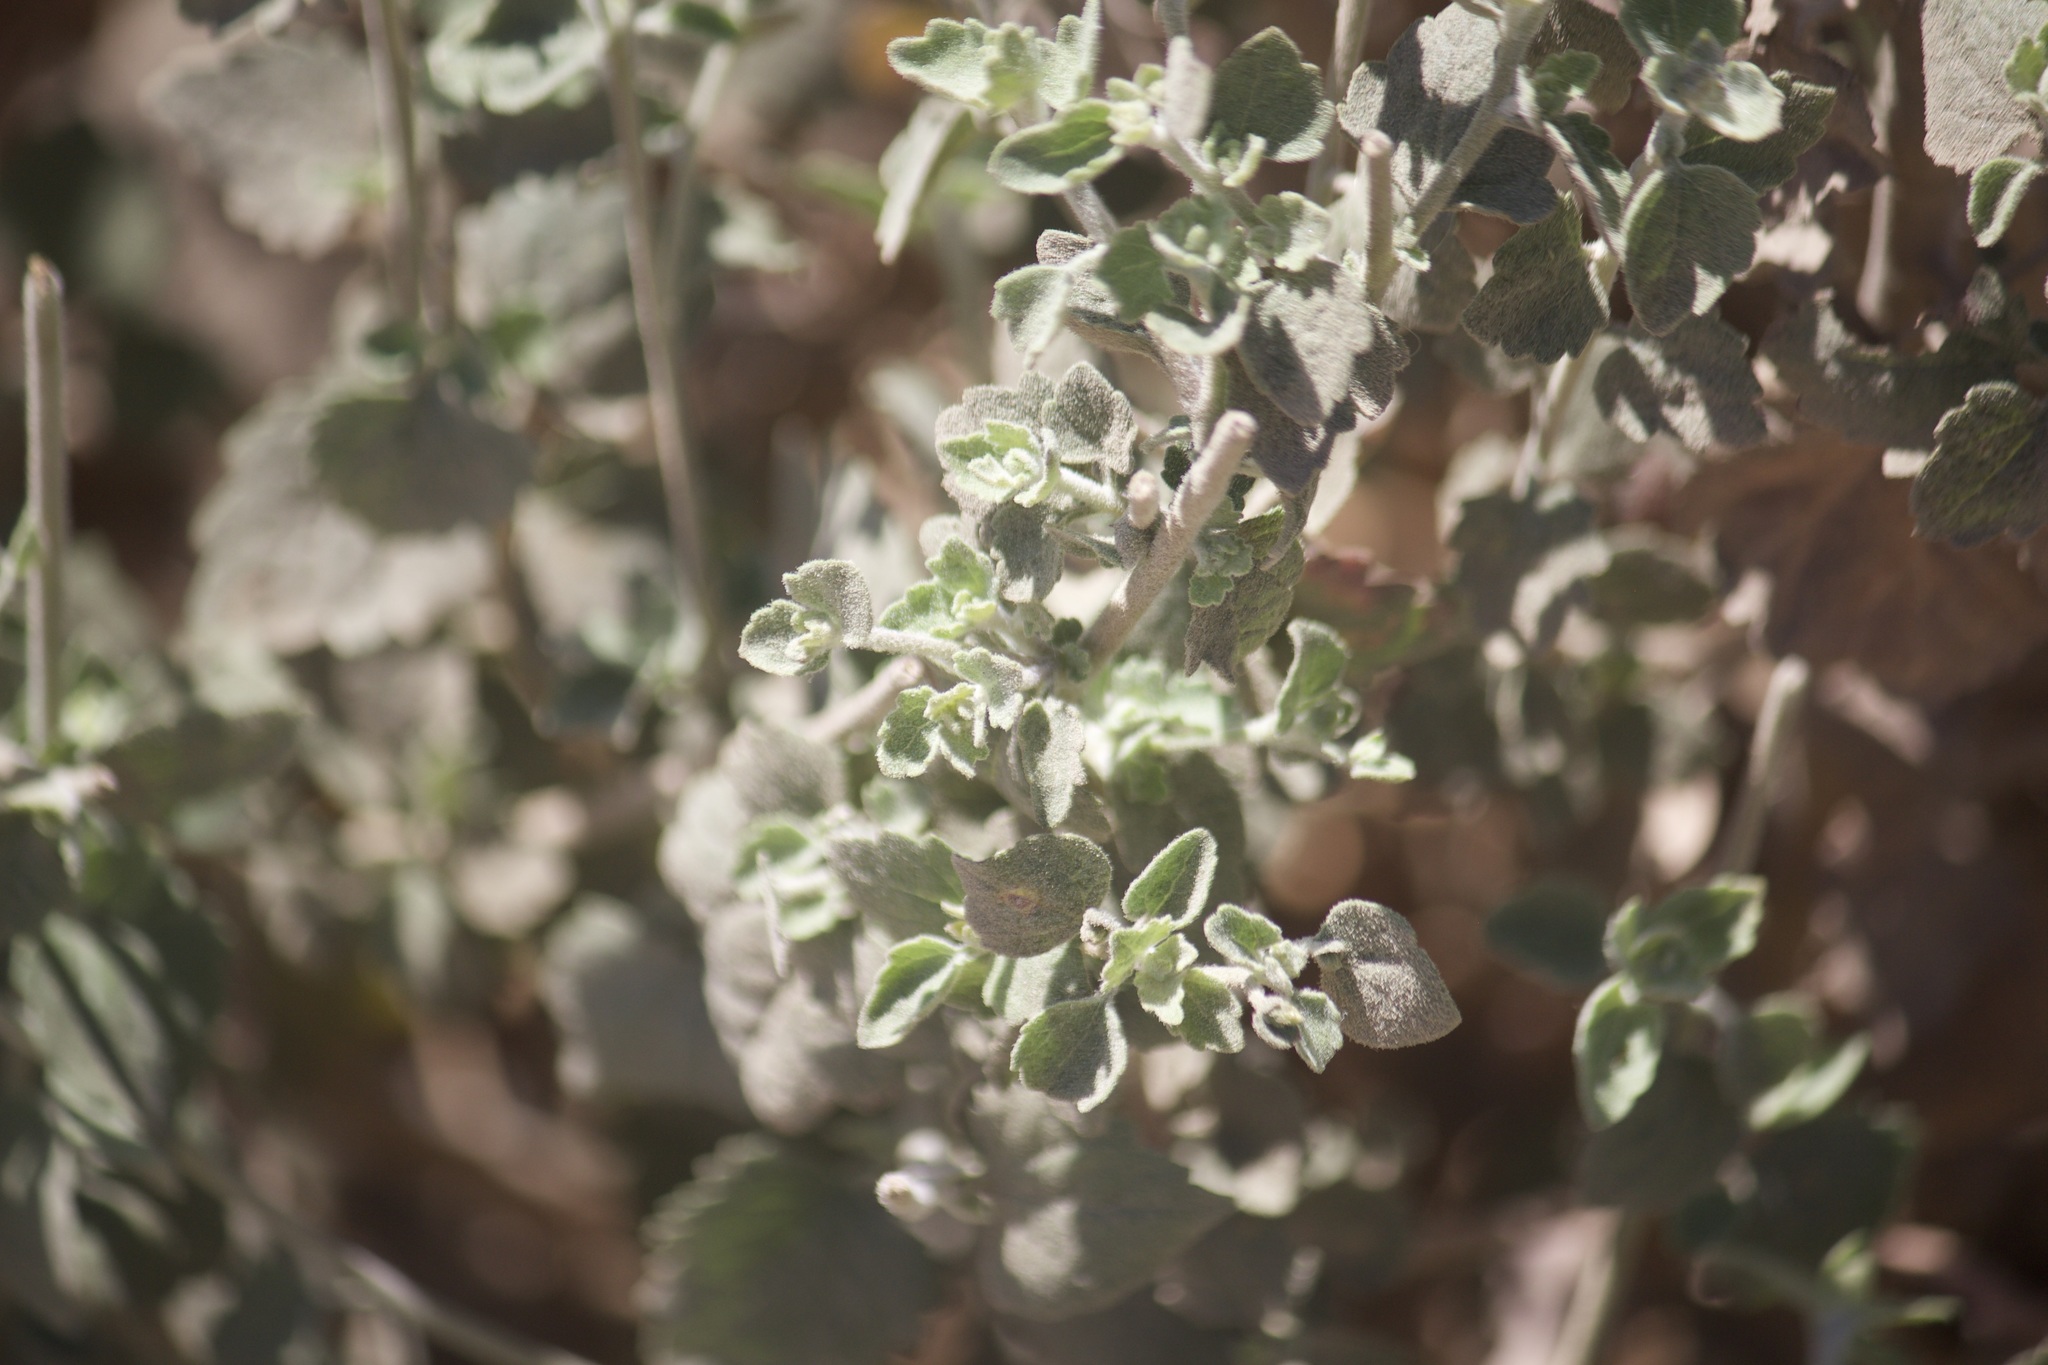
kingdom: Plantae
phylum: Tracheophyta
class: Magnoliopsida
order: Asterales
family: Asteraceae
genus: Brickellia
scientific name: Brickellia nevinii
